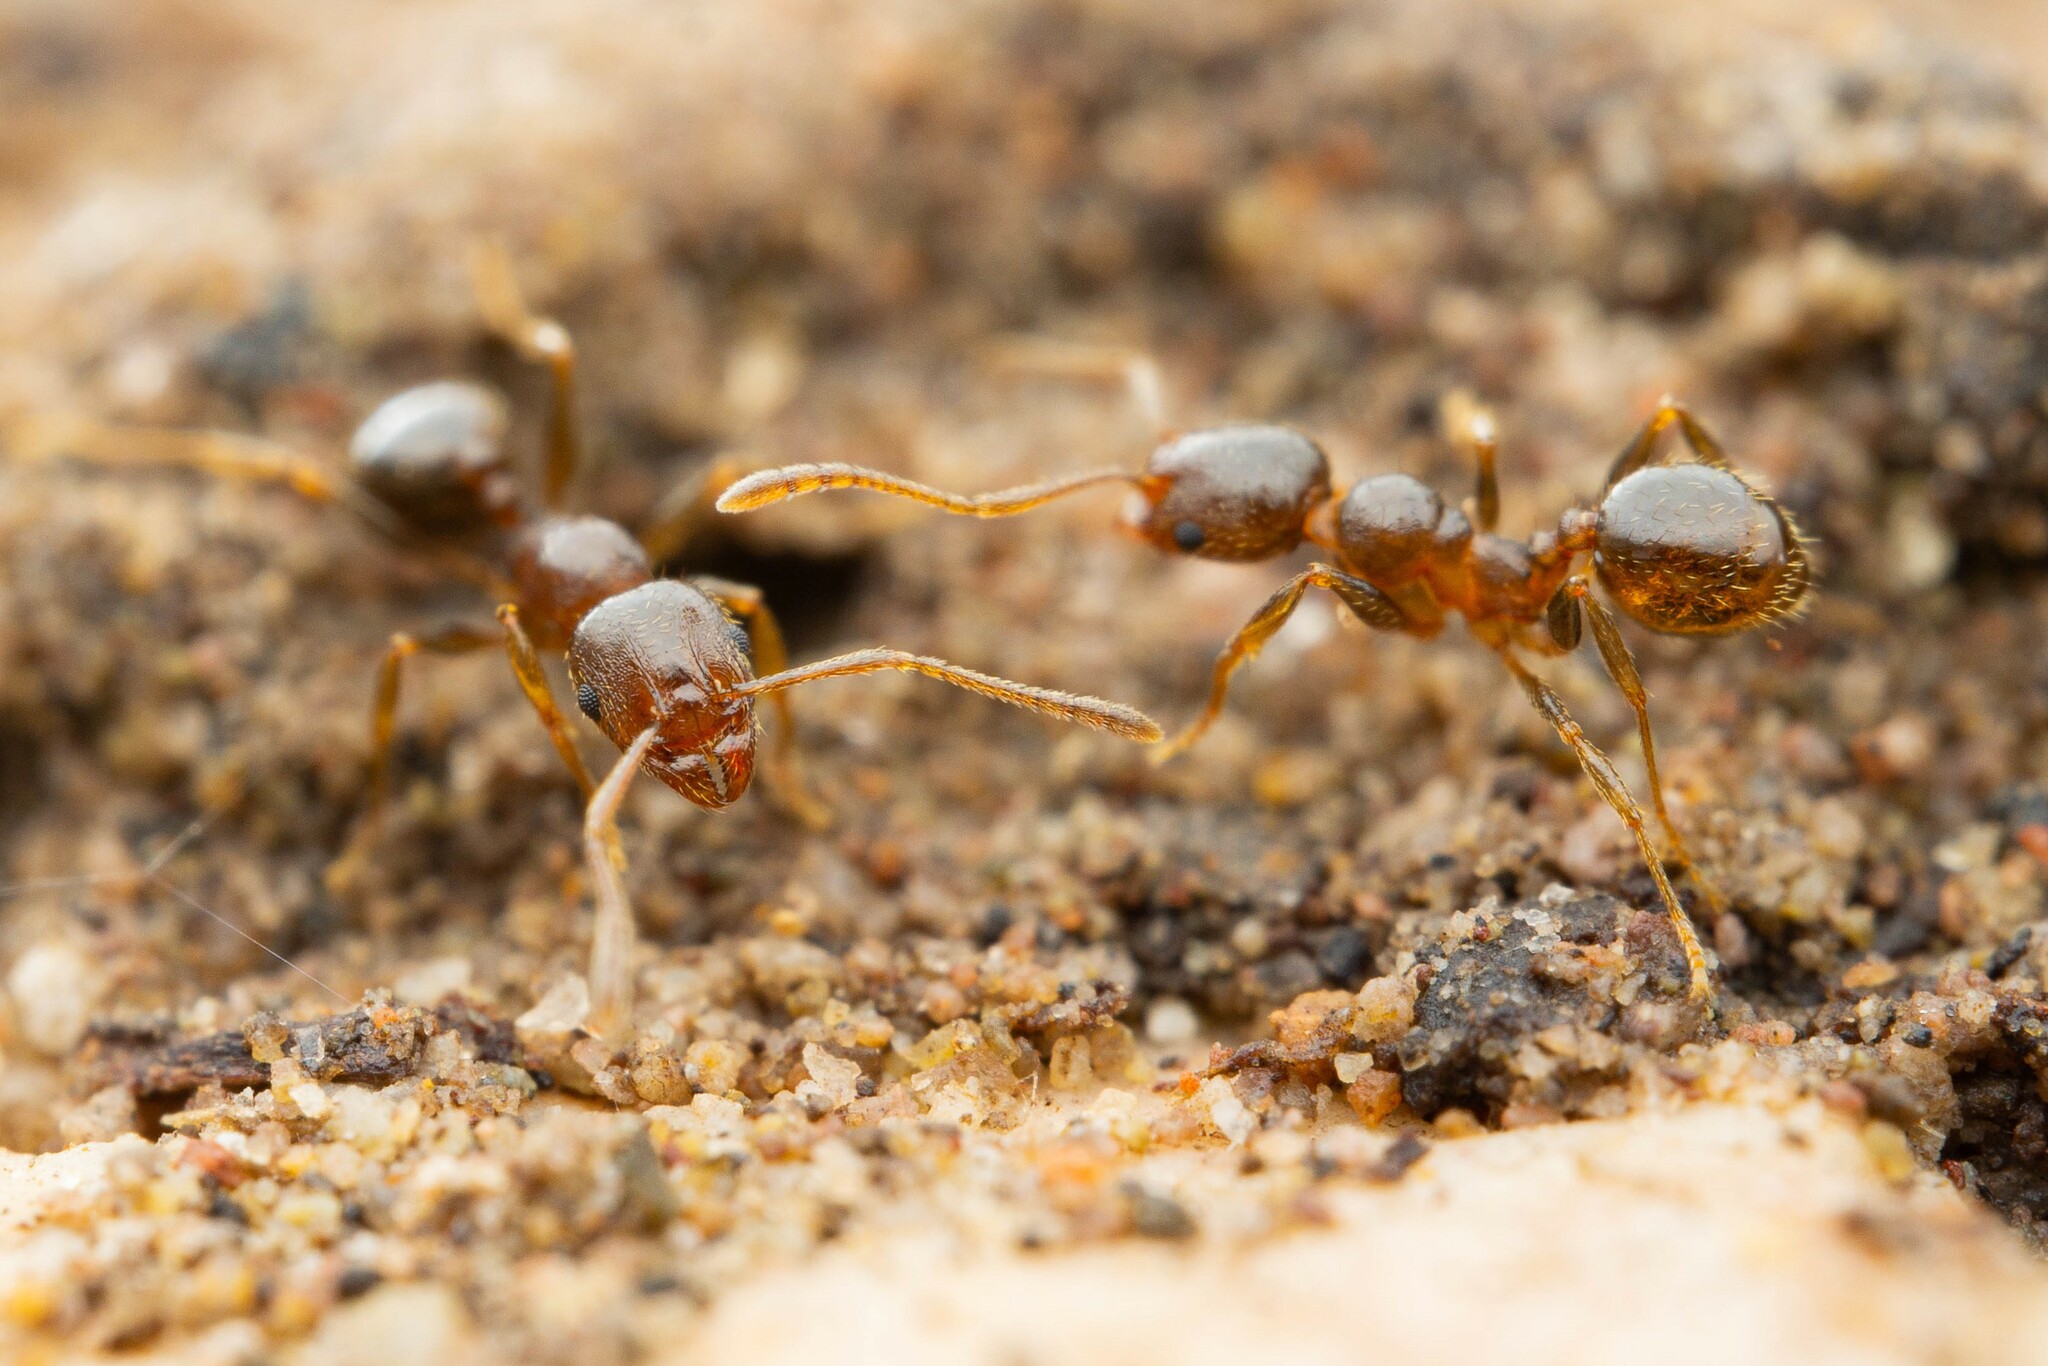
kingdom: Animalia
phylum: Arthropoda
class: Insecta
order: Hymenoptera
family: Formicidae
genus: Pheidole
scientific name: Pheidole diversipilosa
